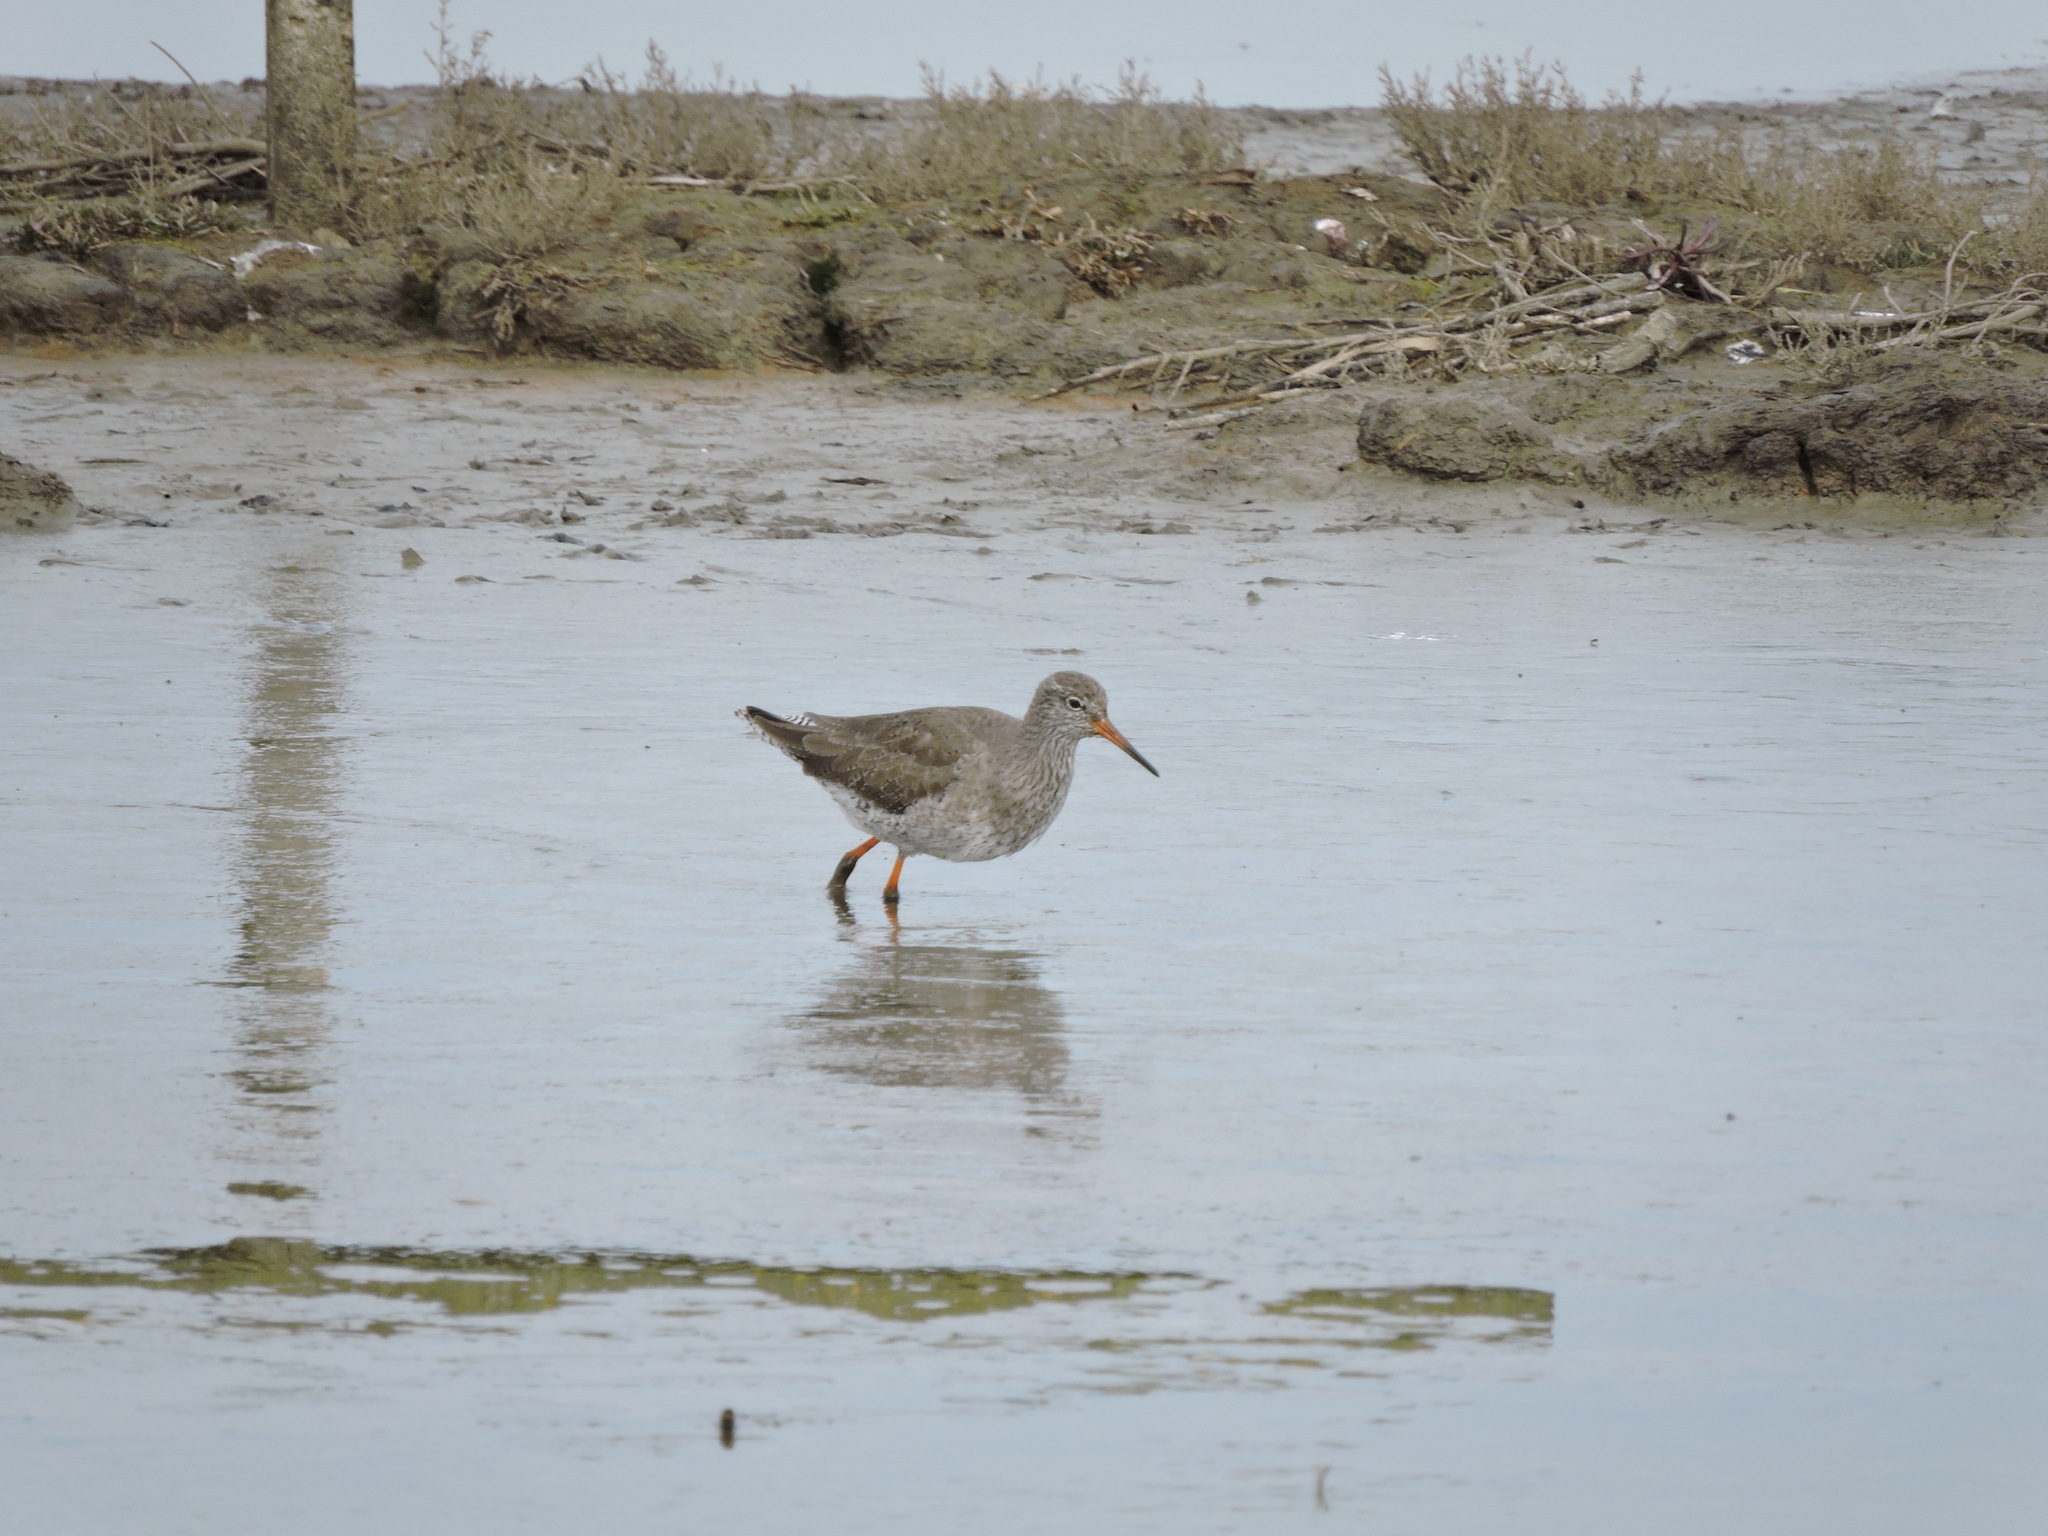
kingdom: Animalia
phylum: Chordata
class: Aves
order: Charadriiformes
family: Scolopacidae
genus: Tringa
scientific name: Tringa totanus
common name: Common redshank
